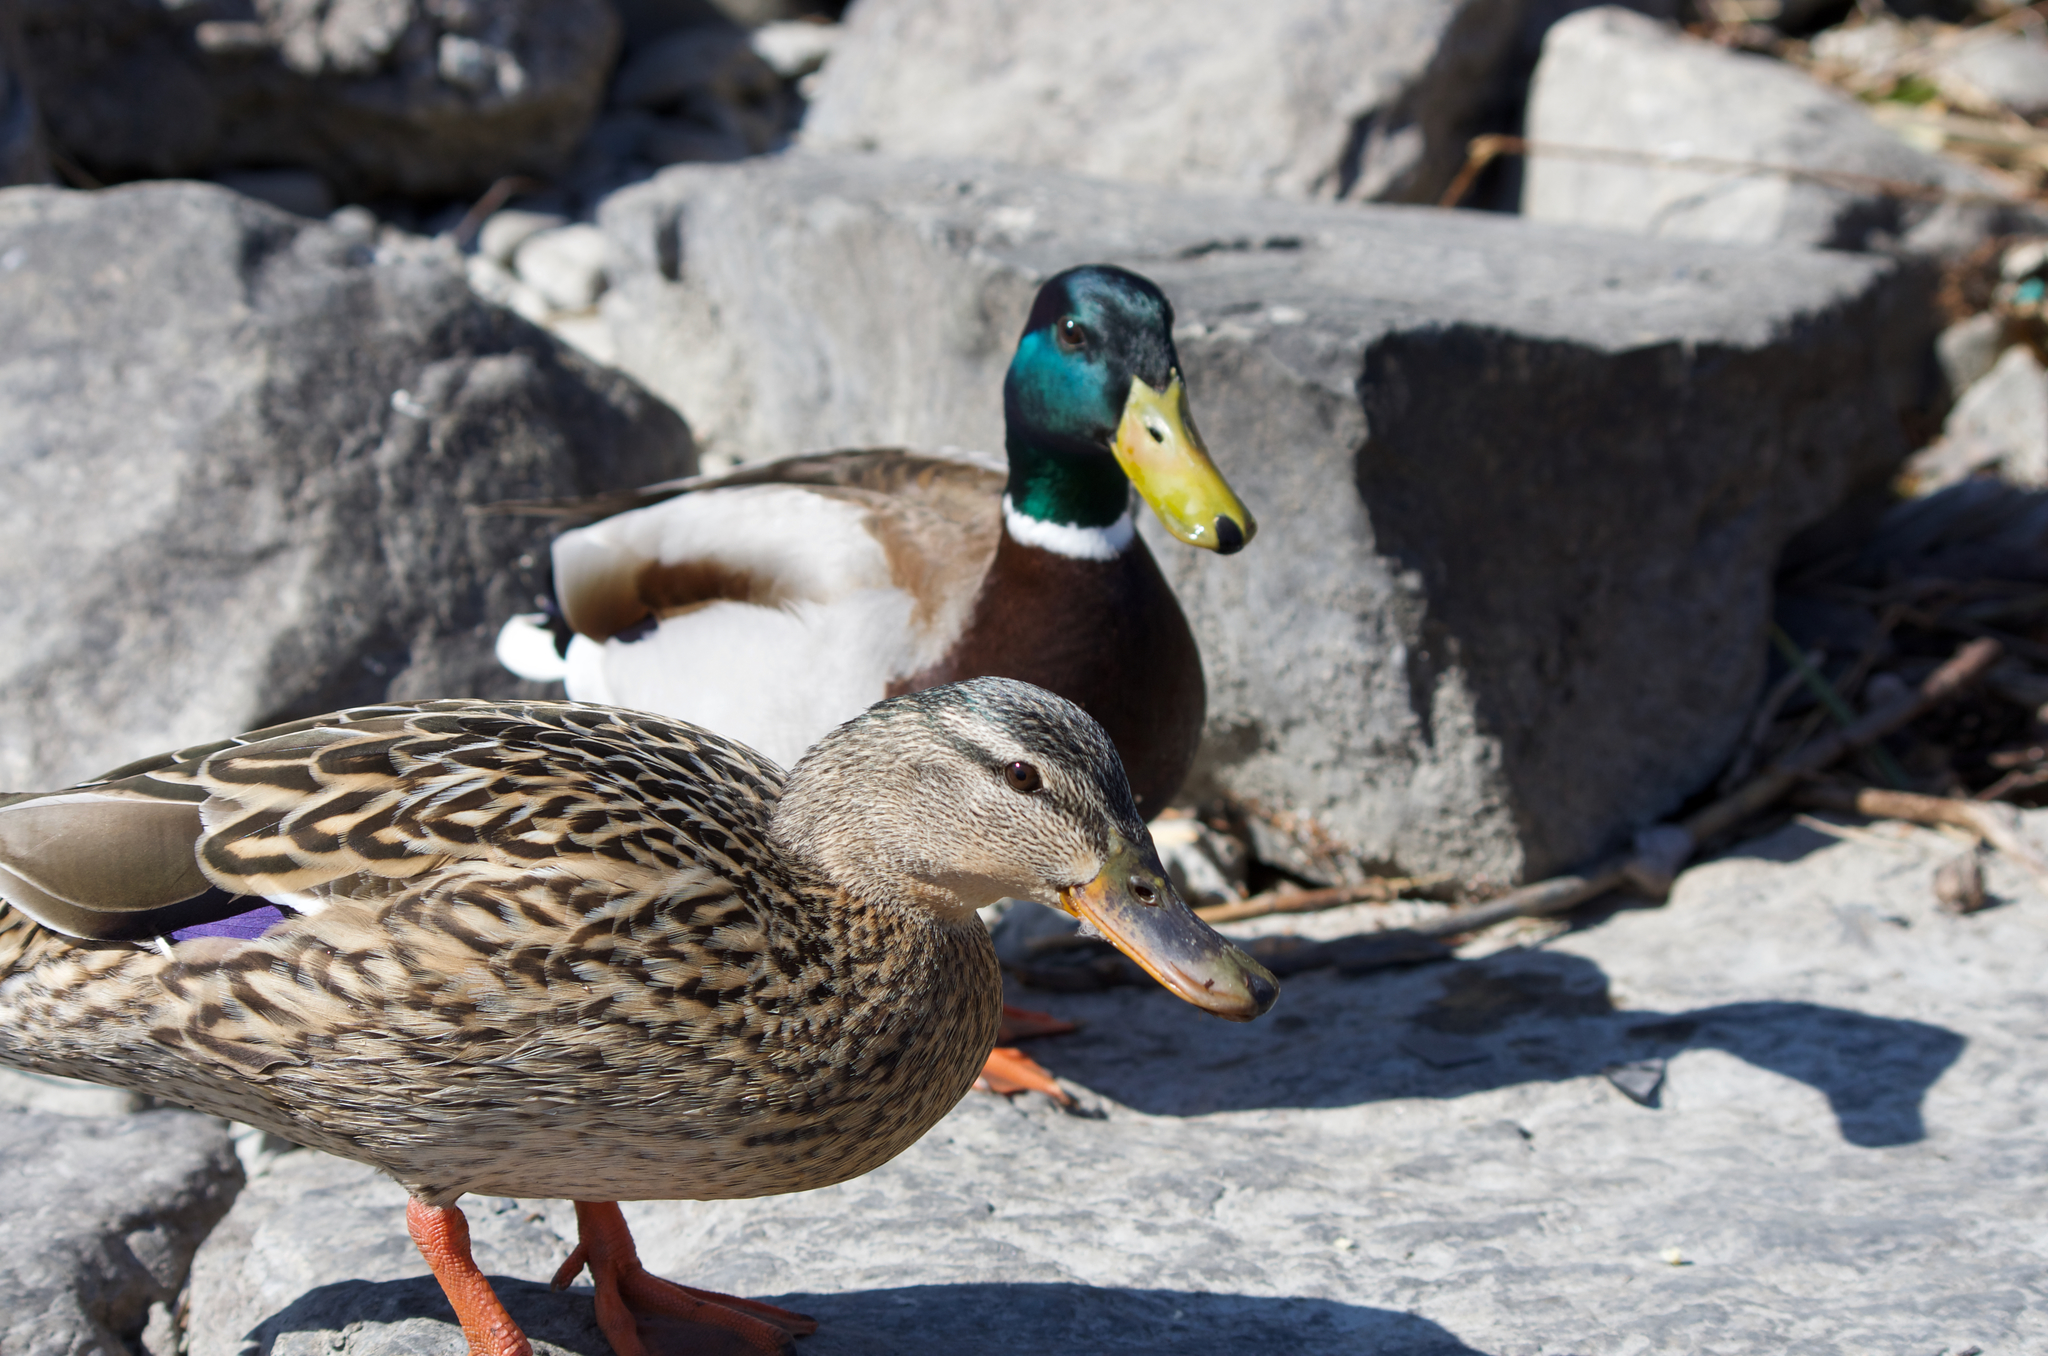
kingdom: Animalia
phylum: Chordata
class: Aves
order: Anseriformes
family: Anatidae
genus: Anas
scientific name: Anas platyrhynchos
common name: Mallard
